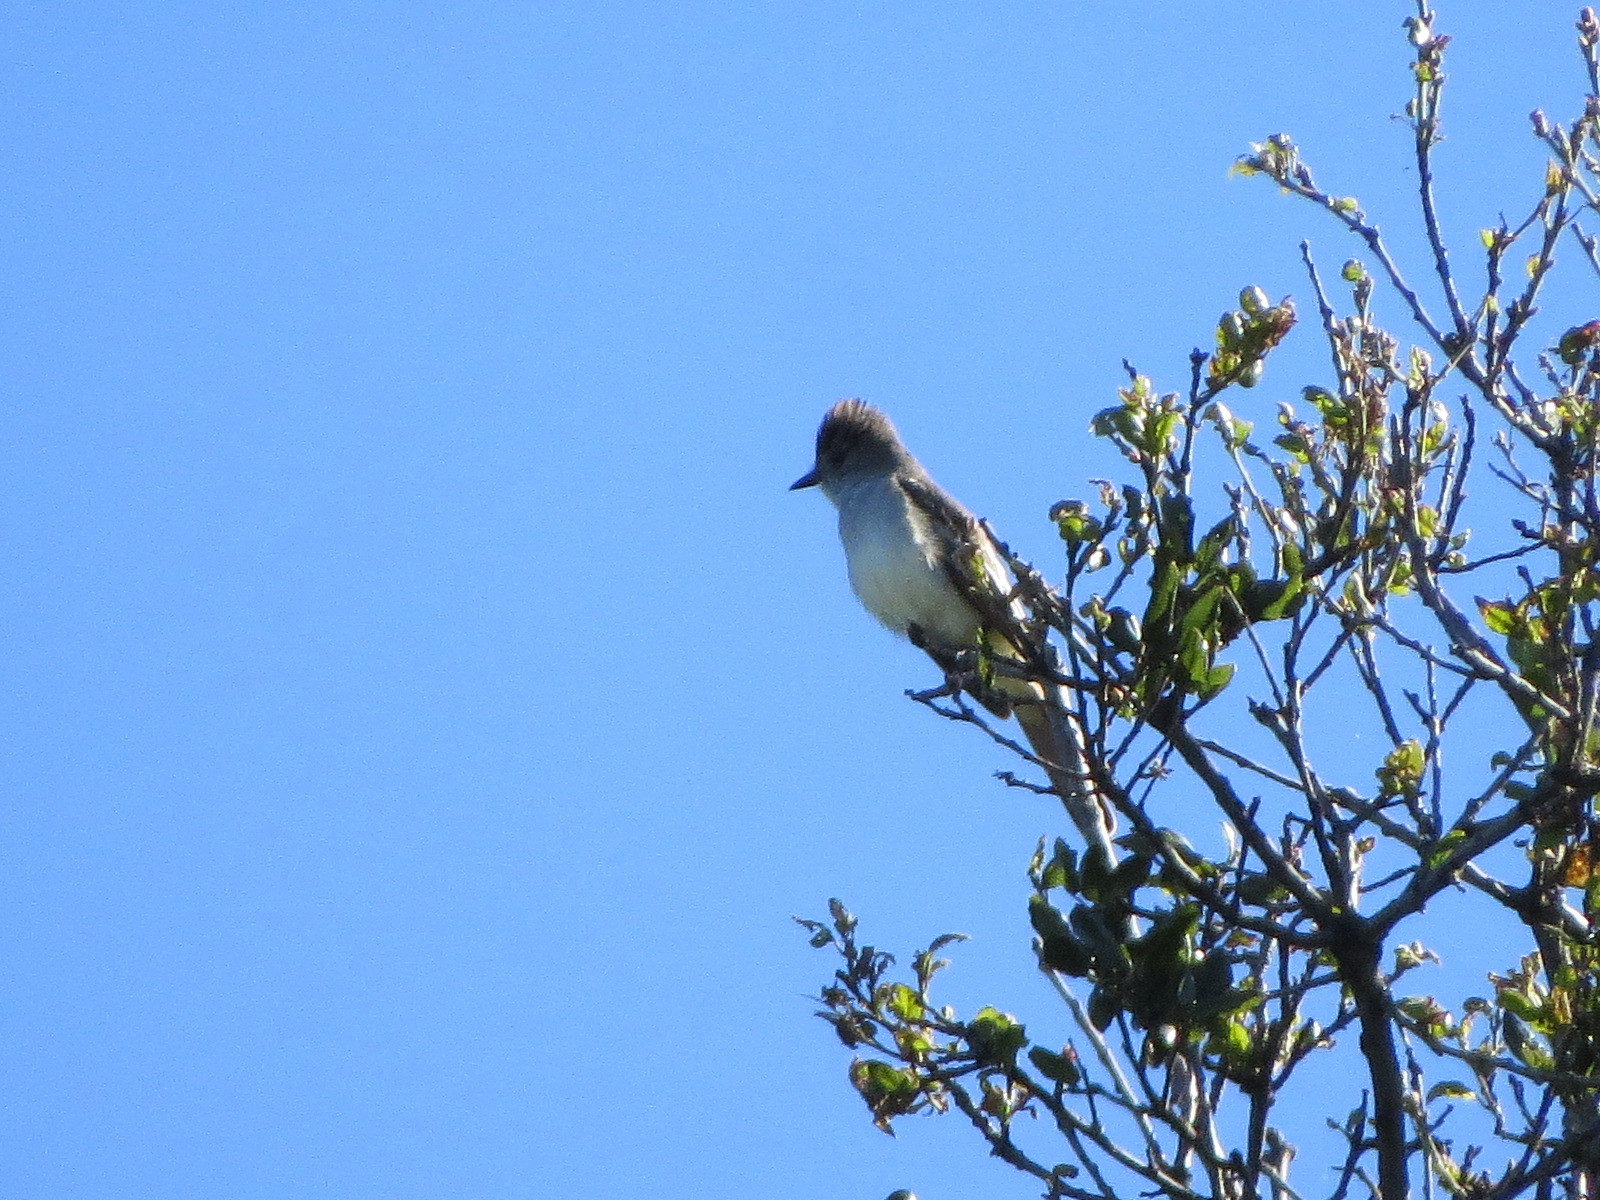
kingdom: Animalia
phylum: Chordata
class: Aves
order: Passeriformes
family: Tyrannidae
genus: Myiarchus
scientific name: Myiarchus cinerascens
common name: Ash-throated flycatcher
